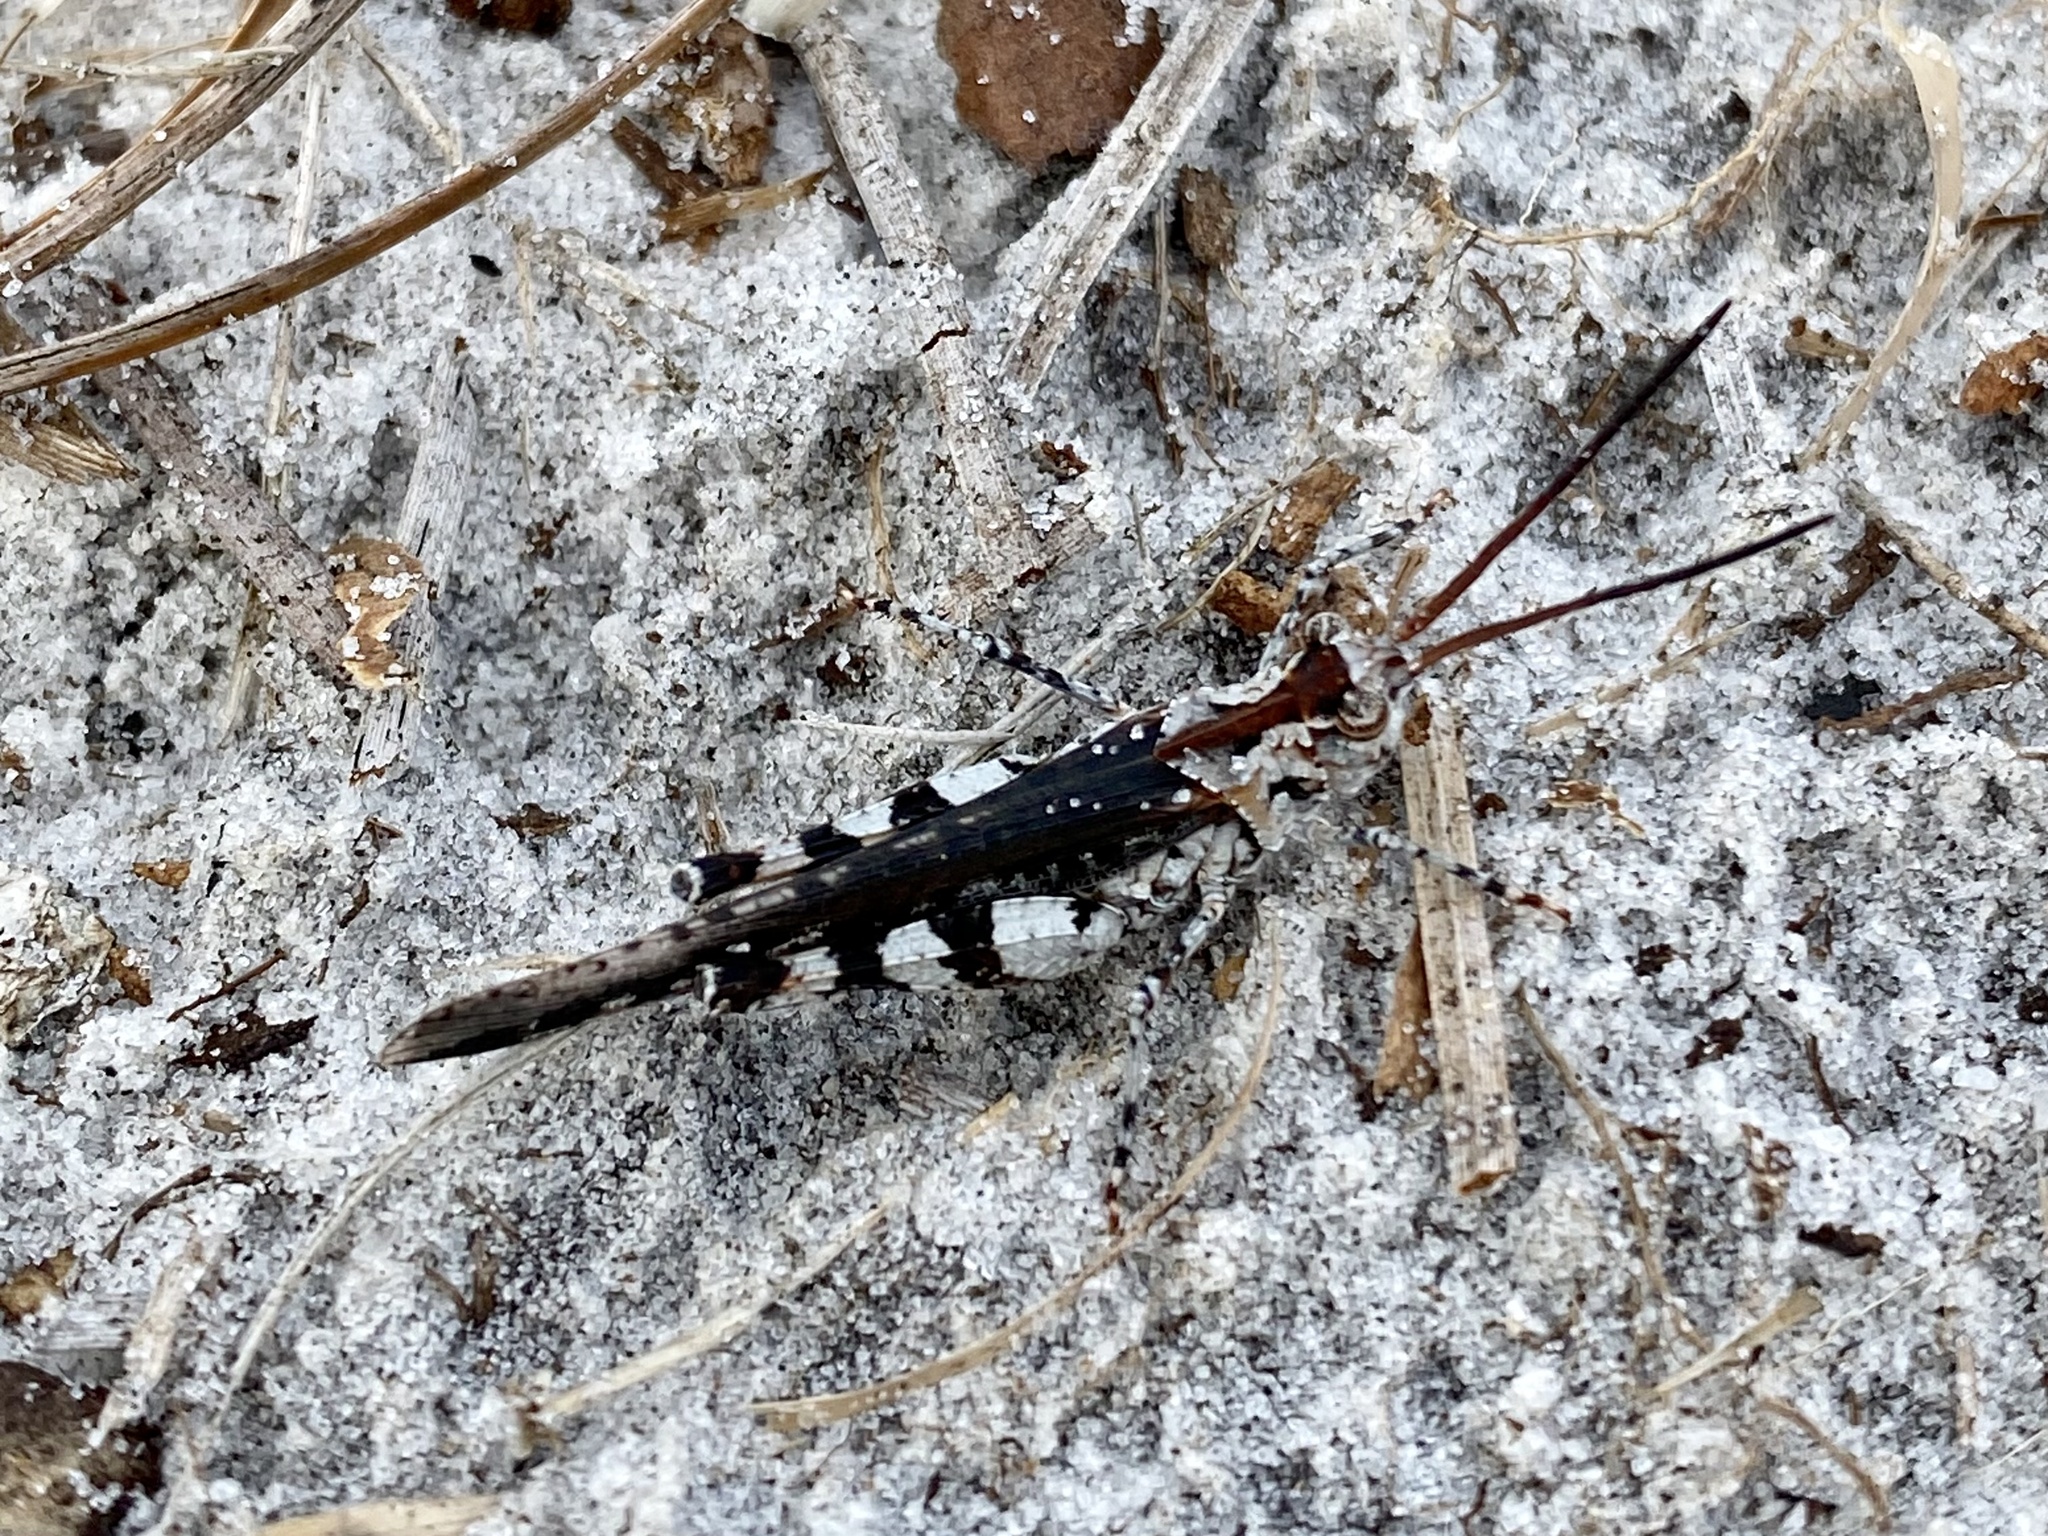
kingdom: Animalia
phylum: Arthropoda
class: Insecta
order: Orthoptera
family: Acrididae
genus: Psinidia
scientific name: Psinidia fenestralis
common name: Long-horned locust
